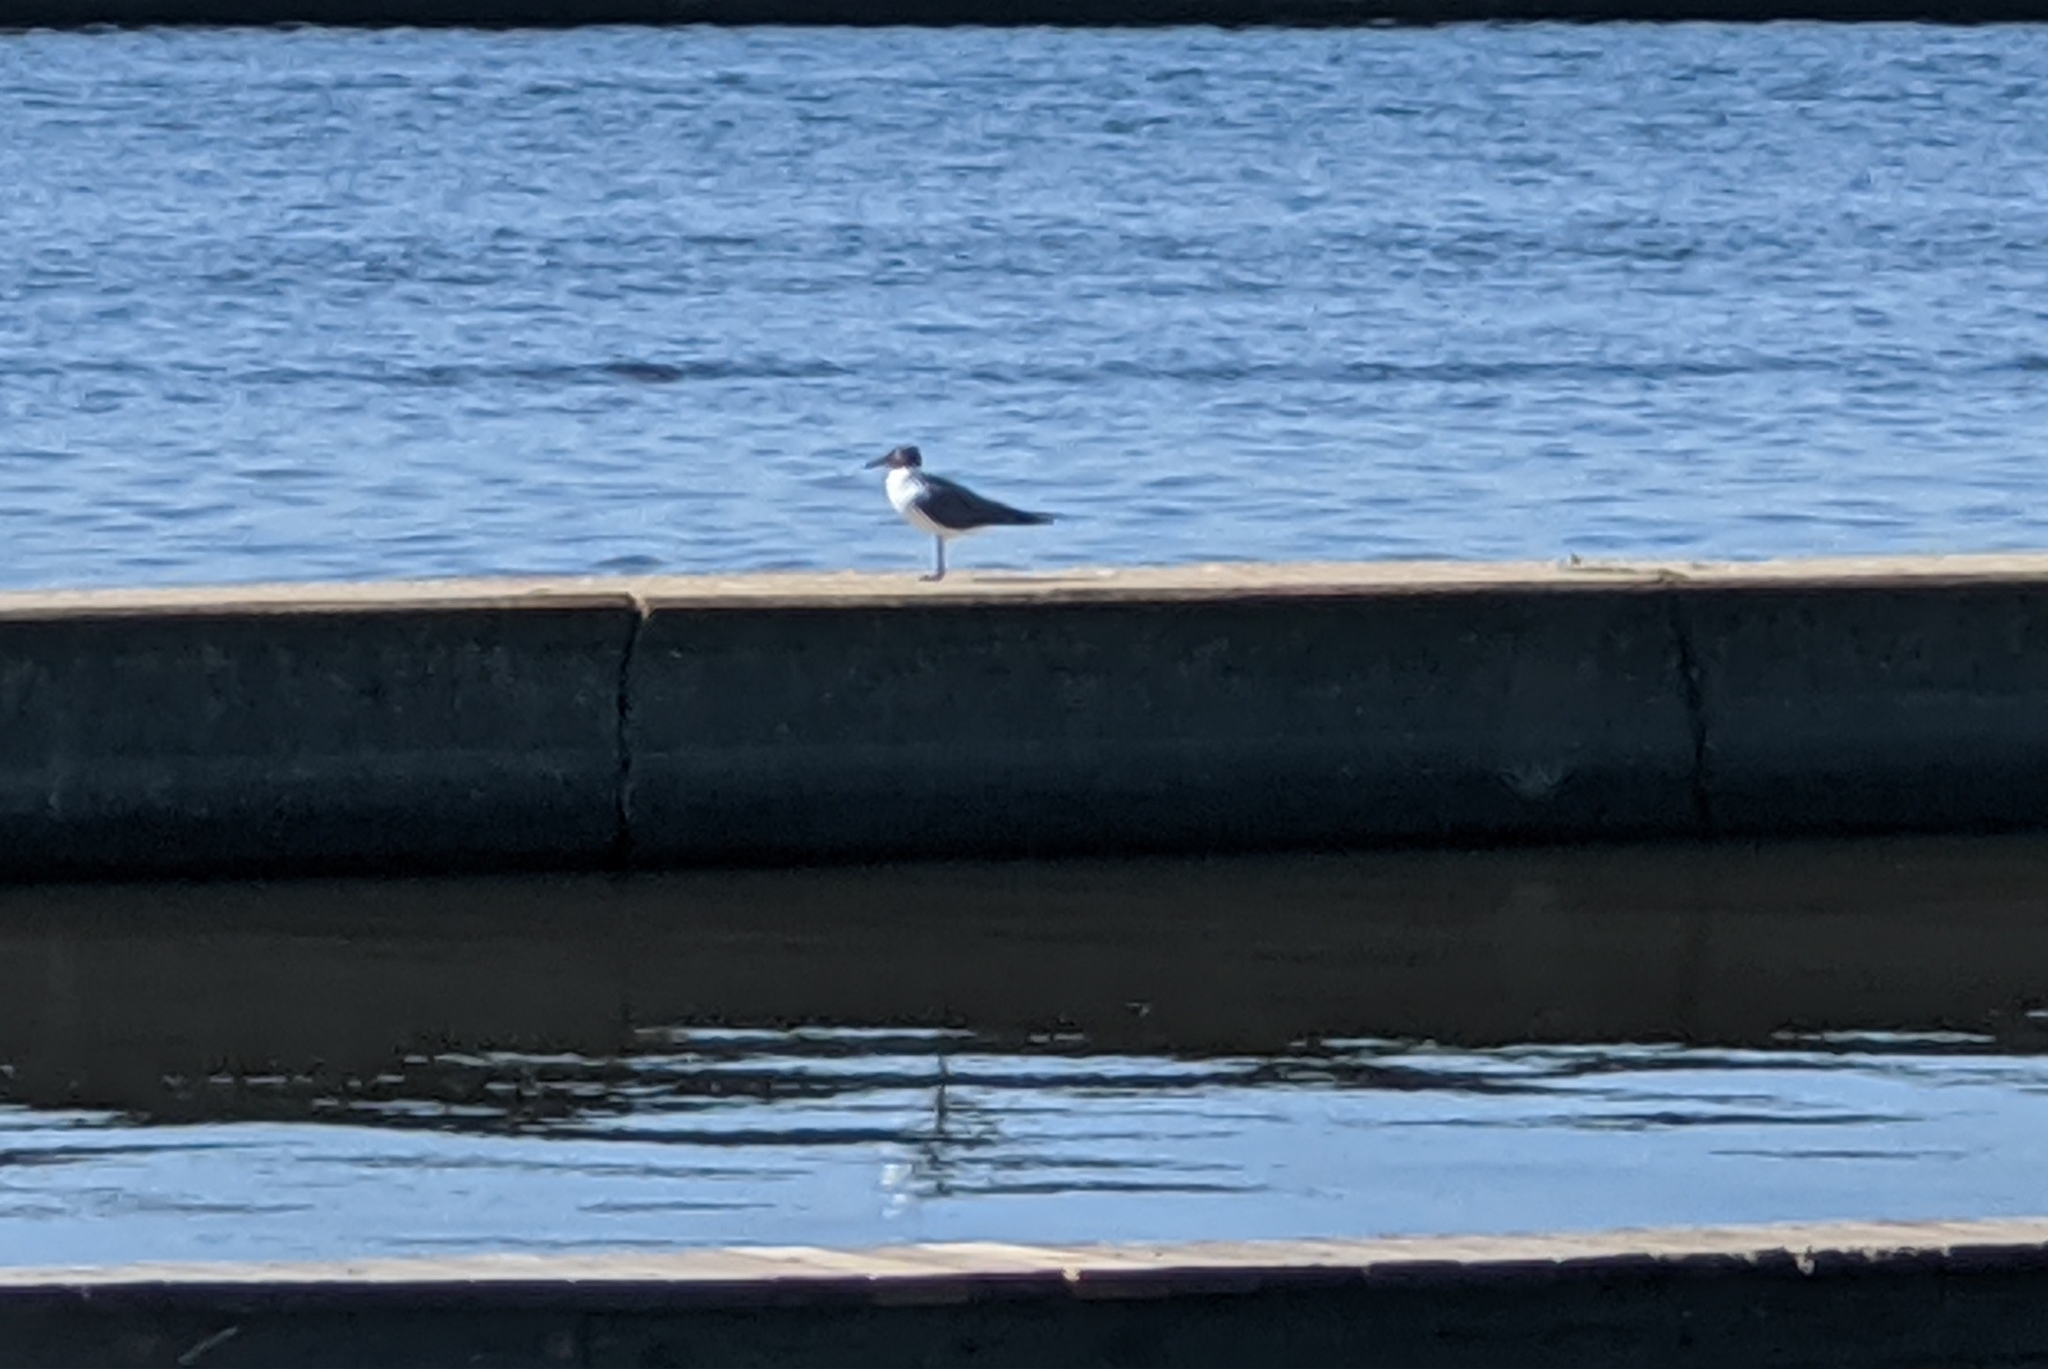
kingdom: Animalia
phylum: Chordata
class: Aves
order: Charadriiformes
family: Laridae
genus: Leucophaeus
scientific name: Leucophaeus atricilla
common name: Laughing gull
